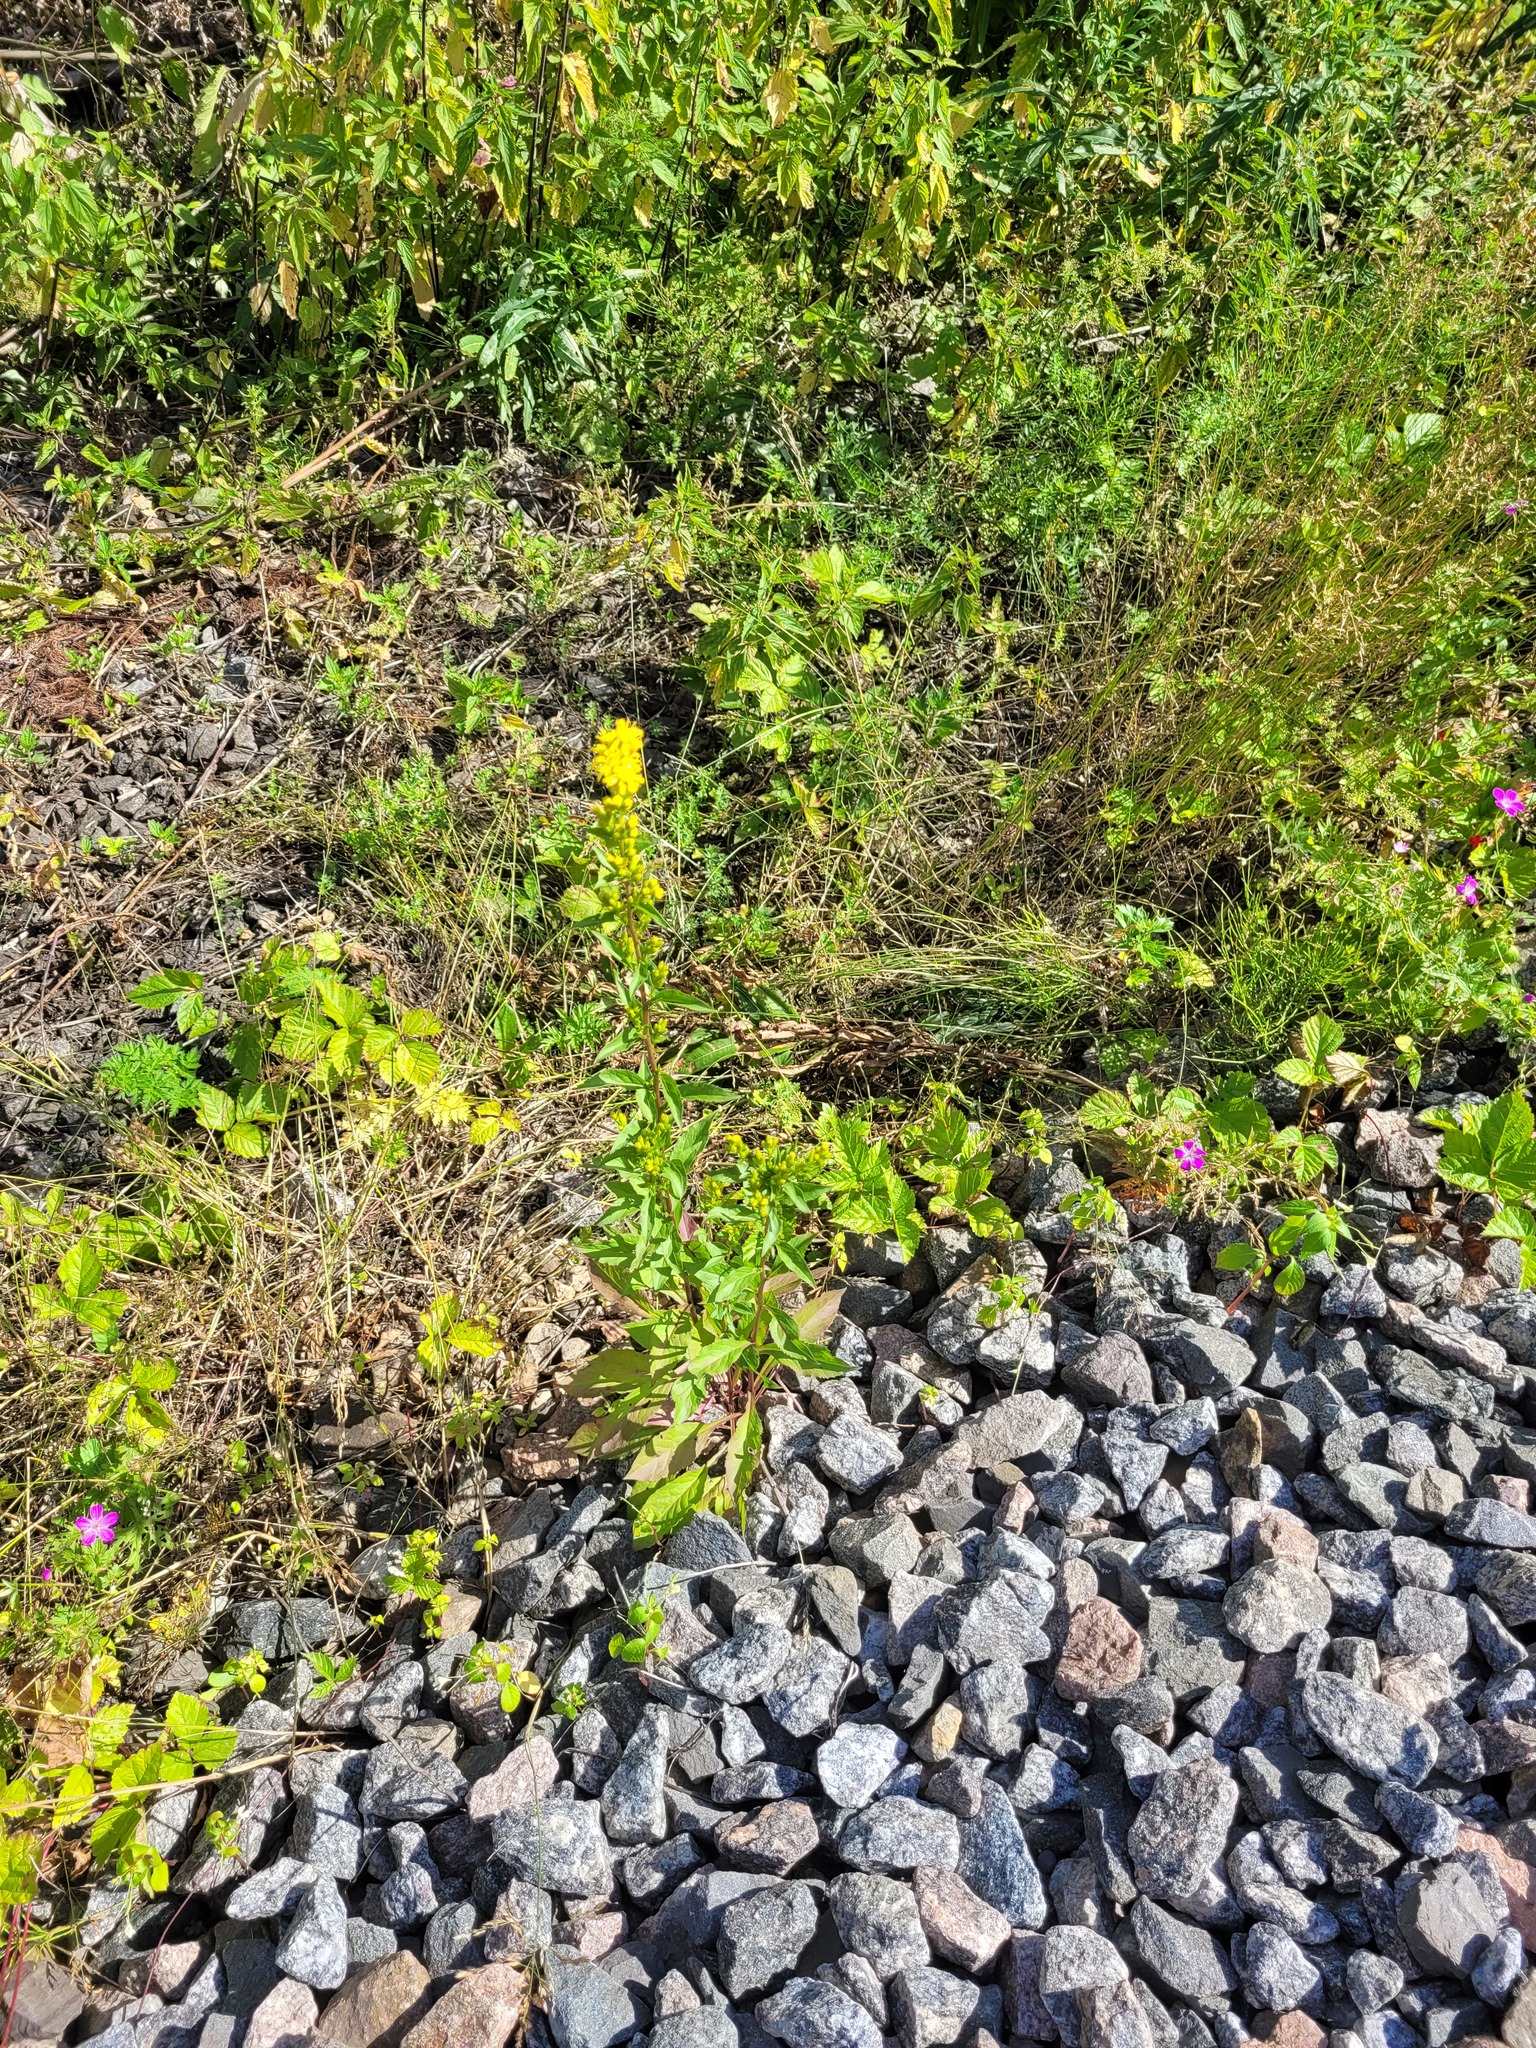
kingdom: Plantae
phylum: Tracheophyta
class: Magnoliopsida
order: Asterales
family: Asteraceae
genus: Solidago
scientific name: Solidago virgaurea
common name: Goldenrod
